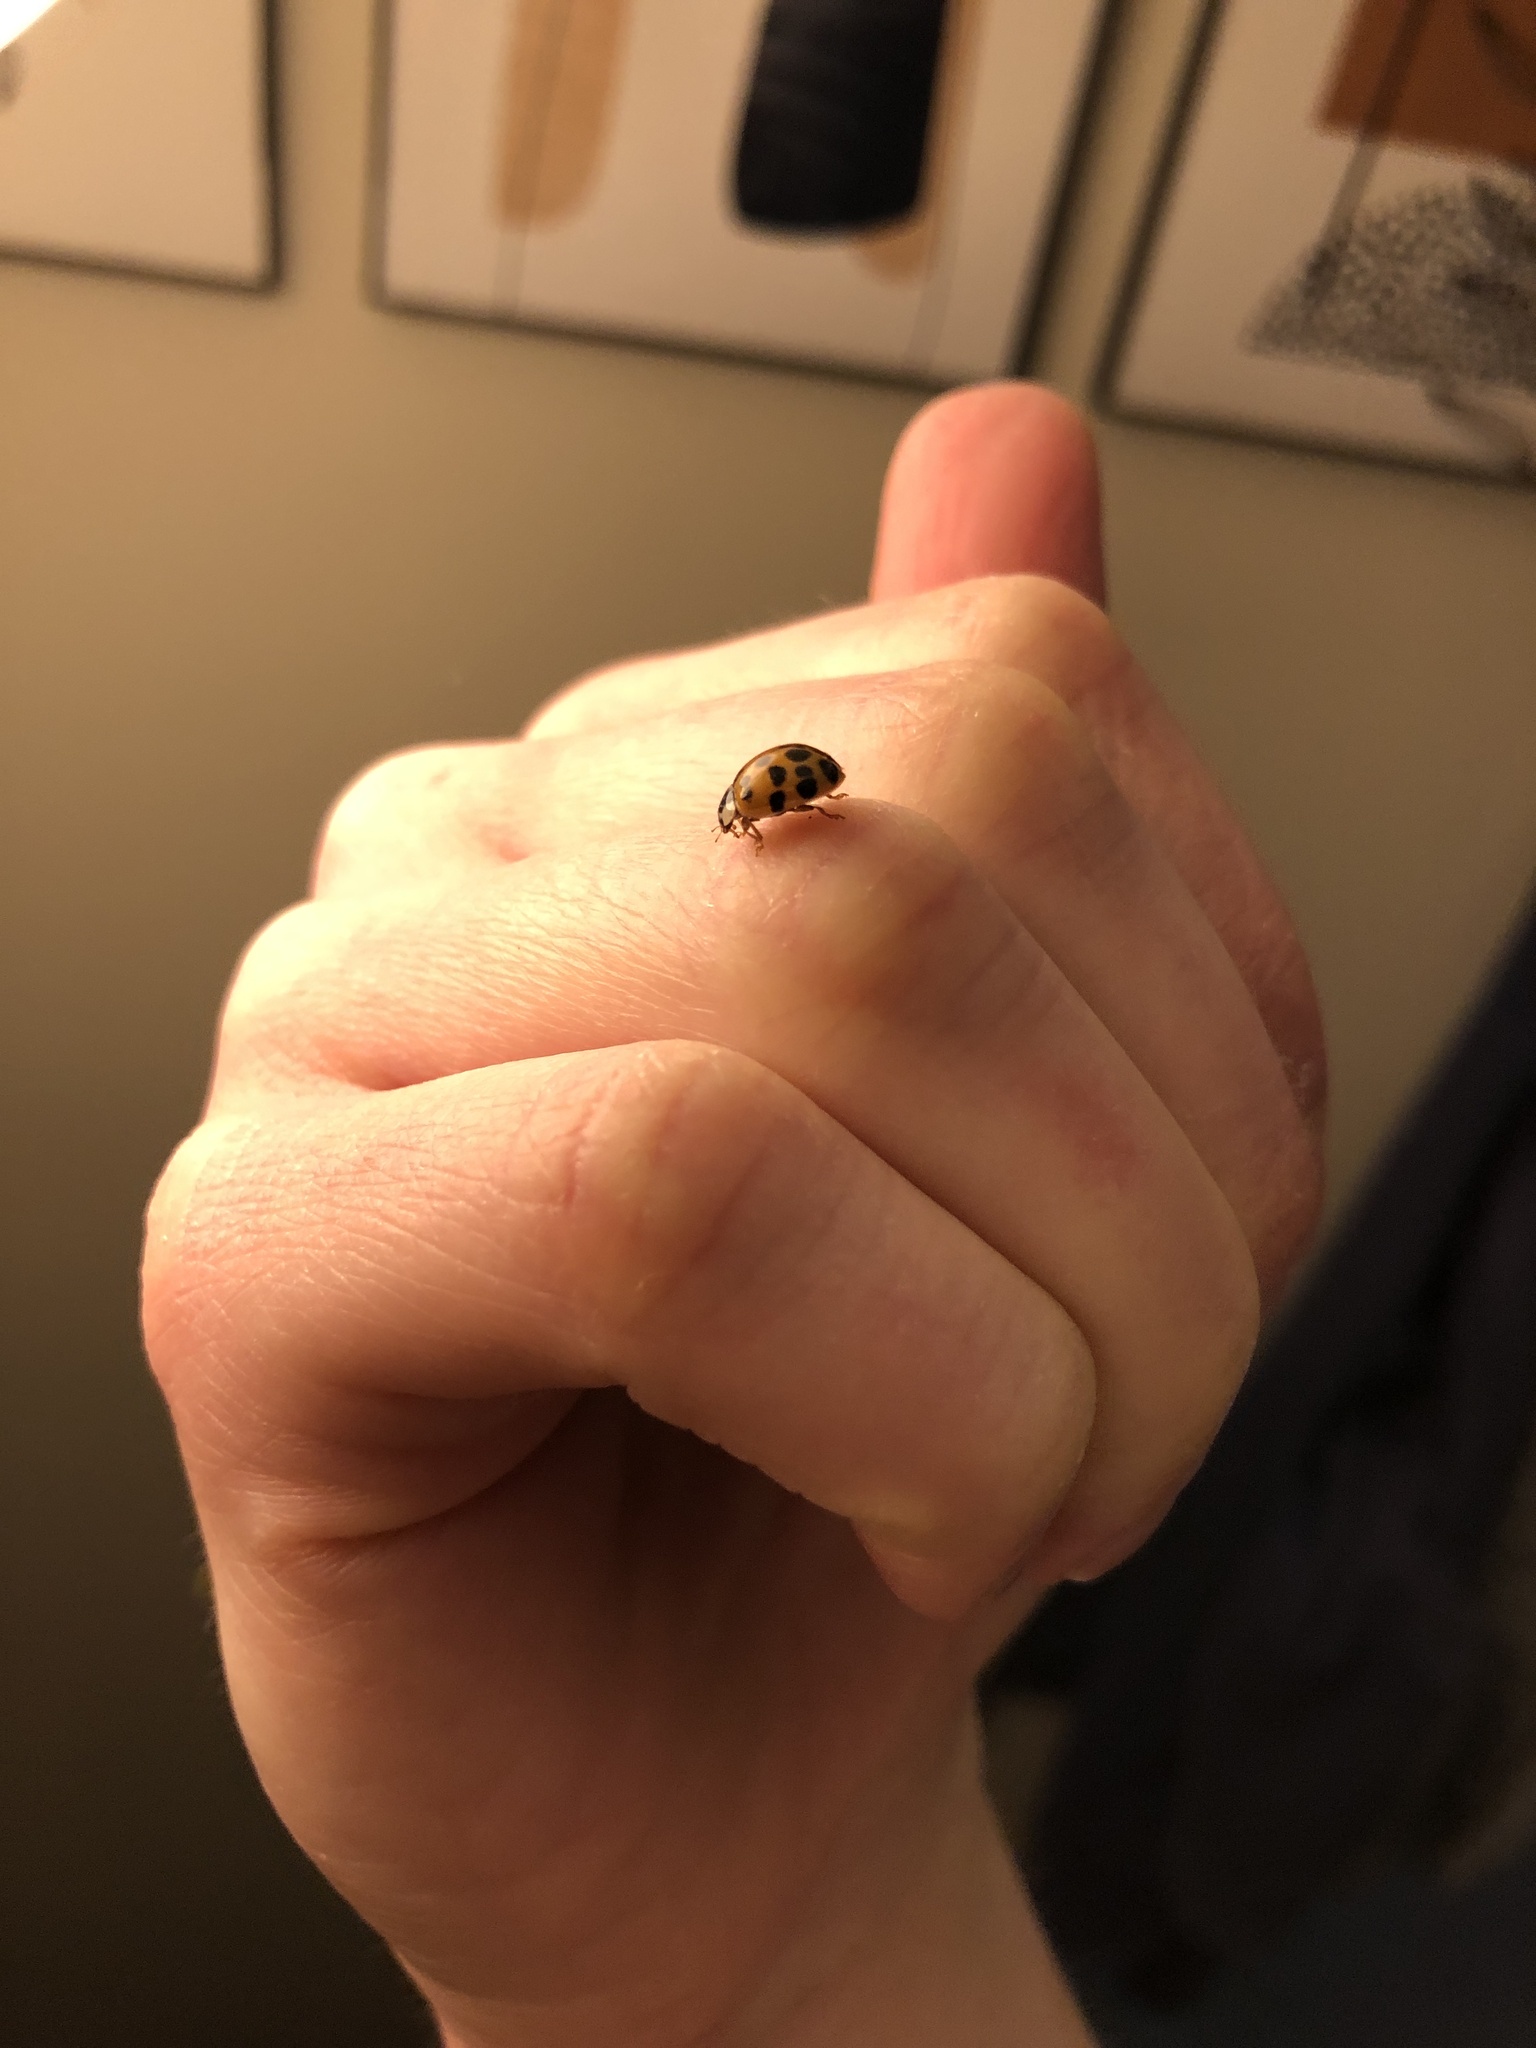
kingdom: Animalia
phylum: Arthropoda
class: Insecta
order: Coleoptera
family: Coccinellidae
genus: Harmonia
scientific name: Harmonia axyridis
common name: Harlequin ladybird
